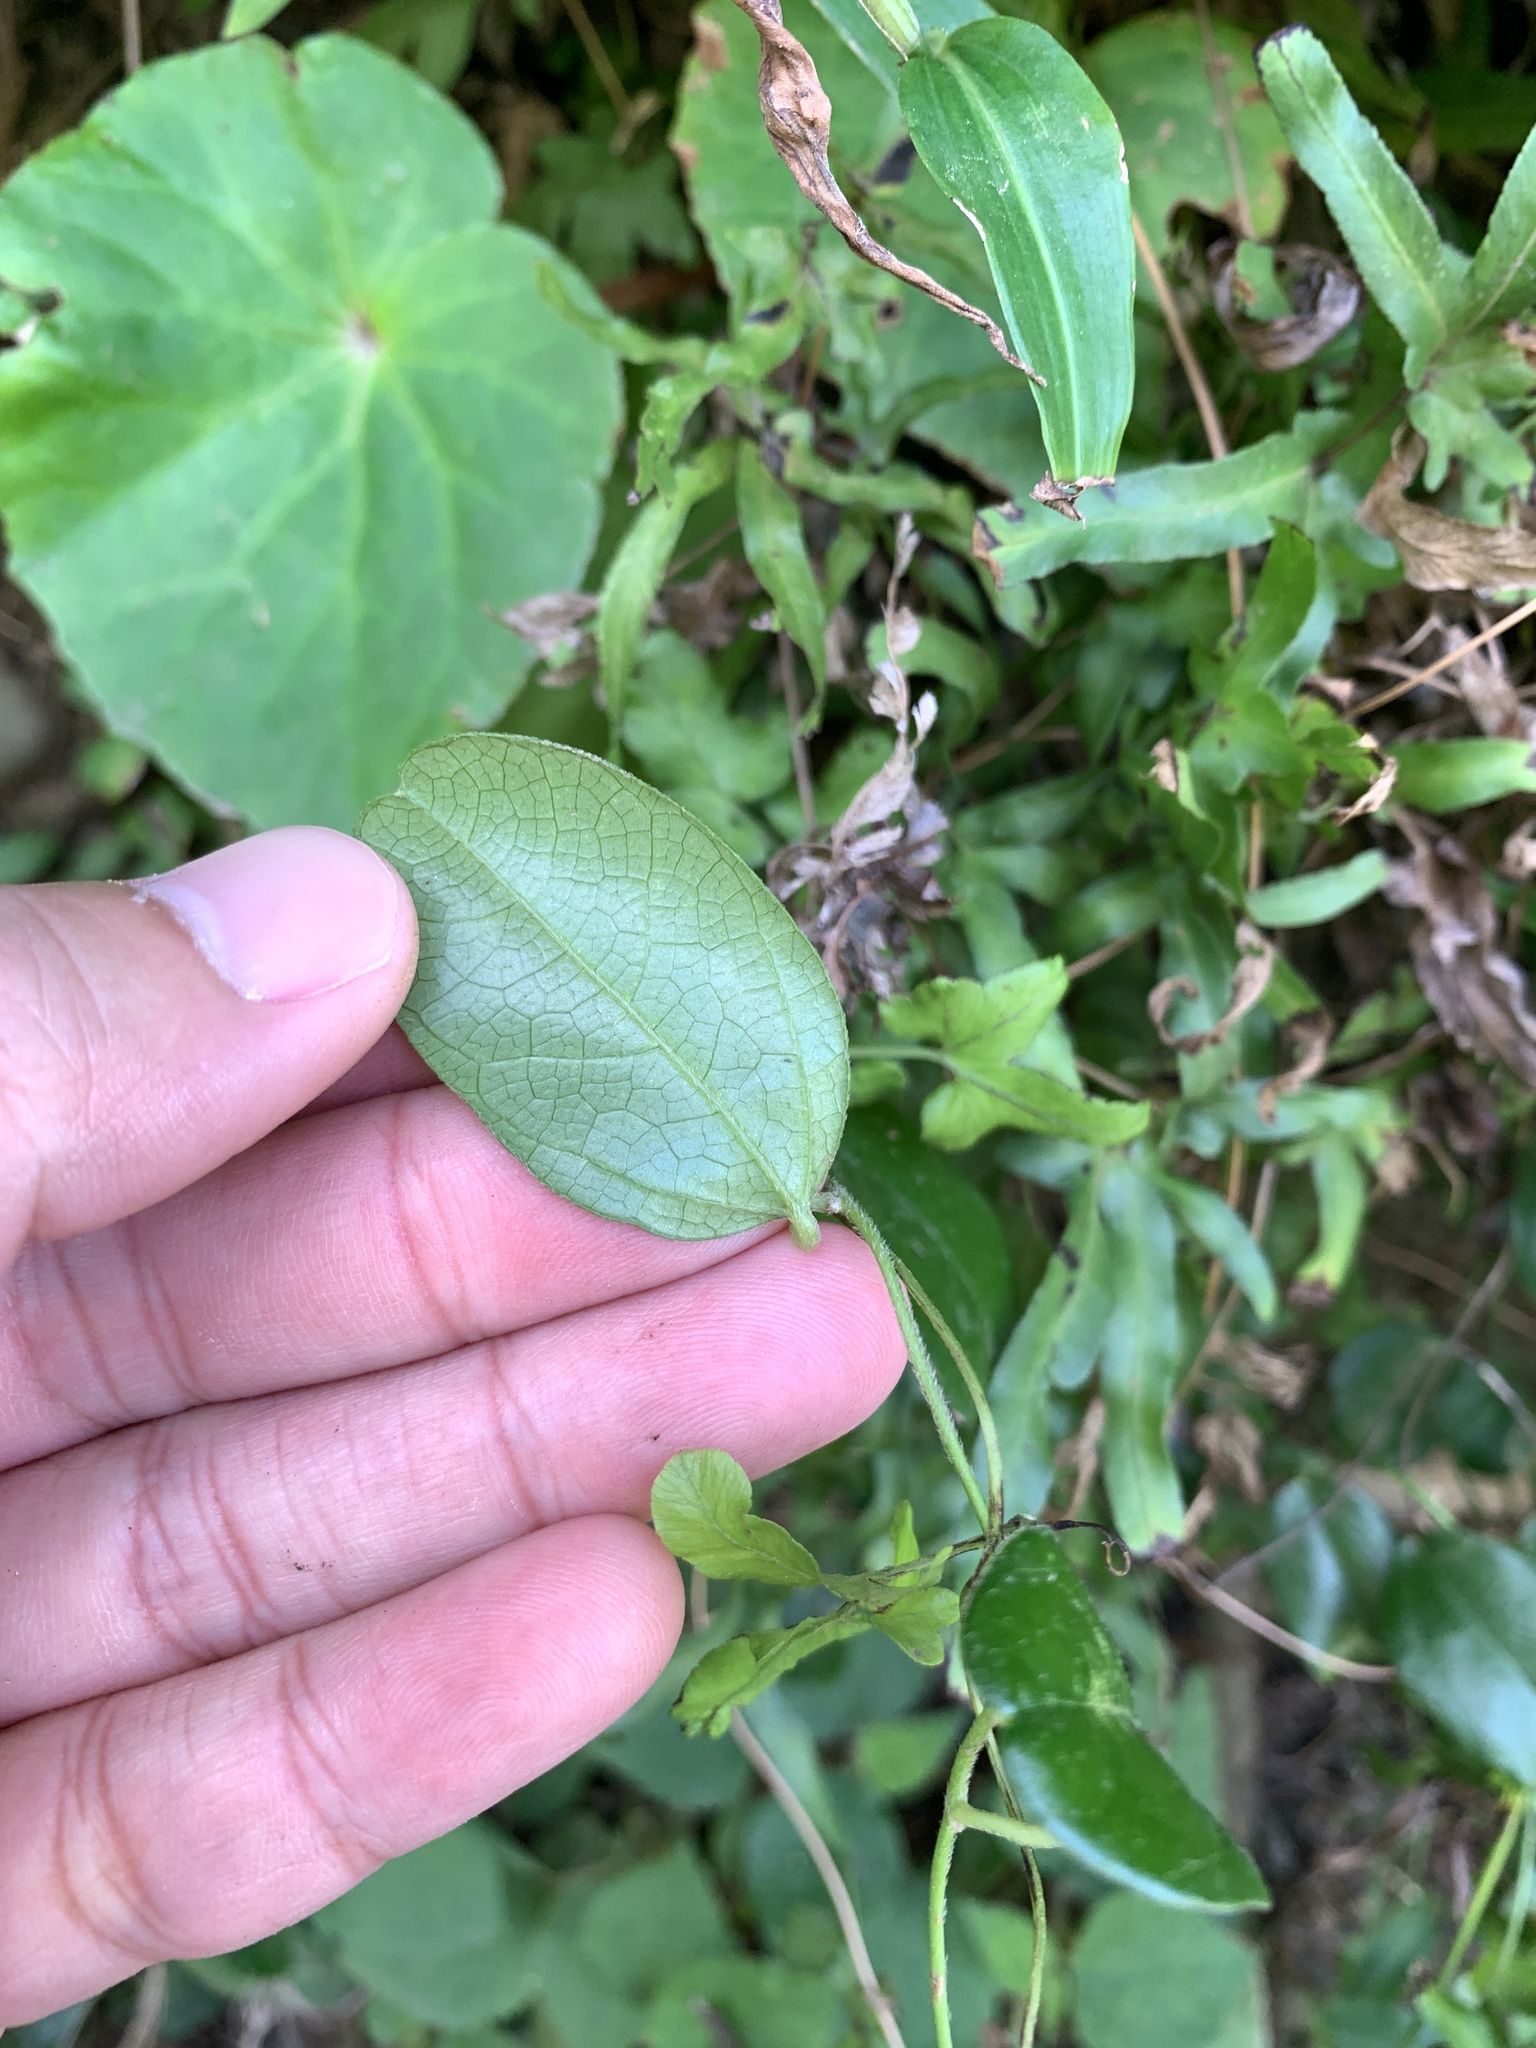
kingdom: Plantae
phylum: Tracheophyta
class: Magnoliopsida
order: Ranunculales
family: Menispermaceae
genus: Cocculus
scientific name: Cocculus orbiculatus
